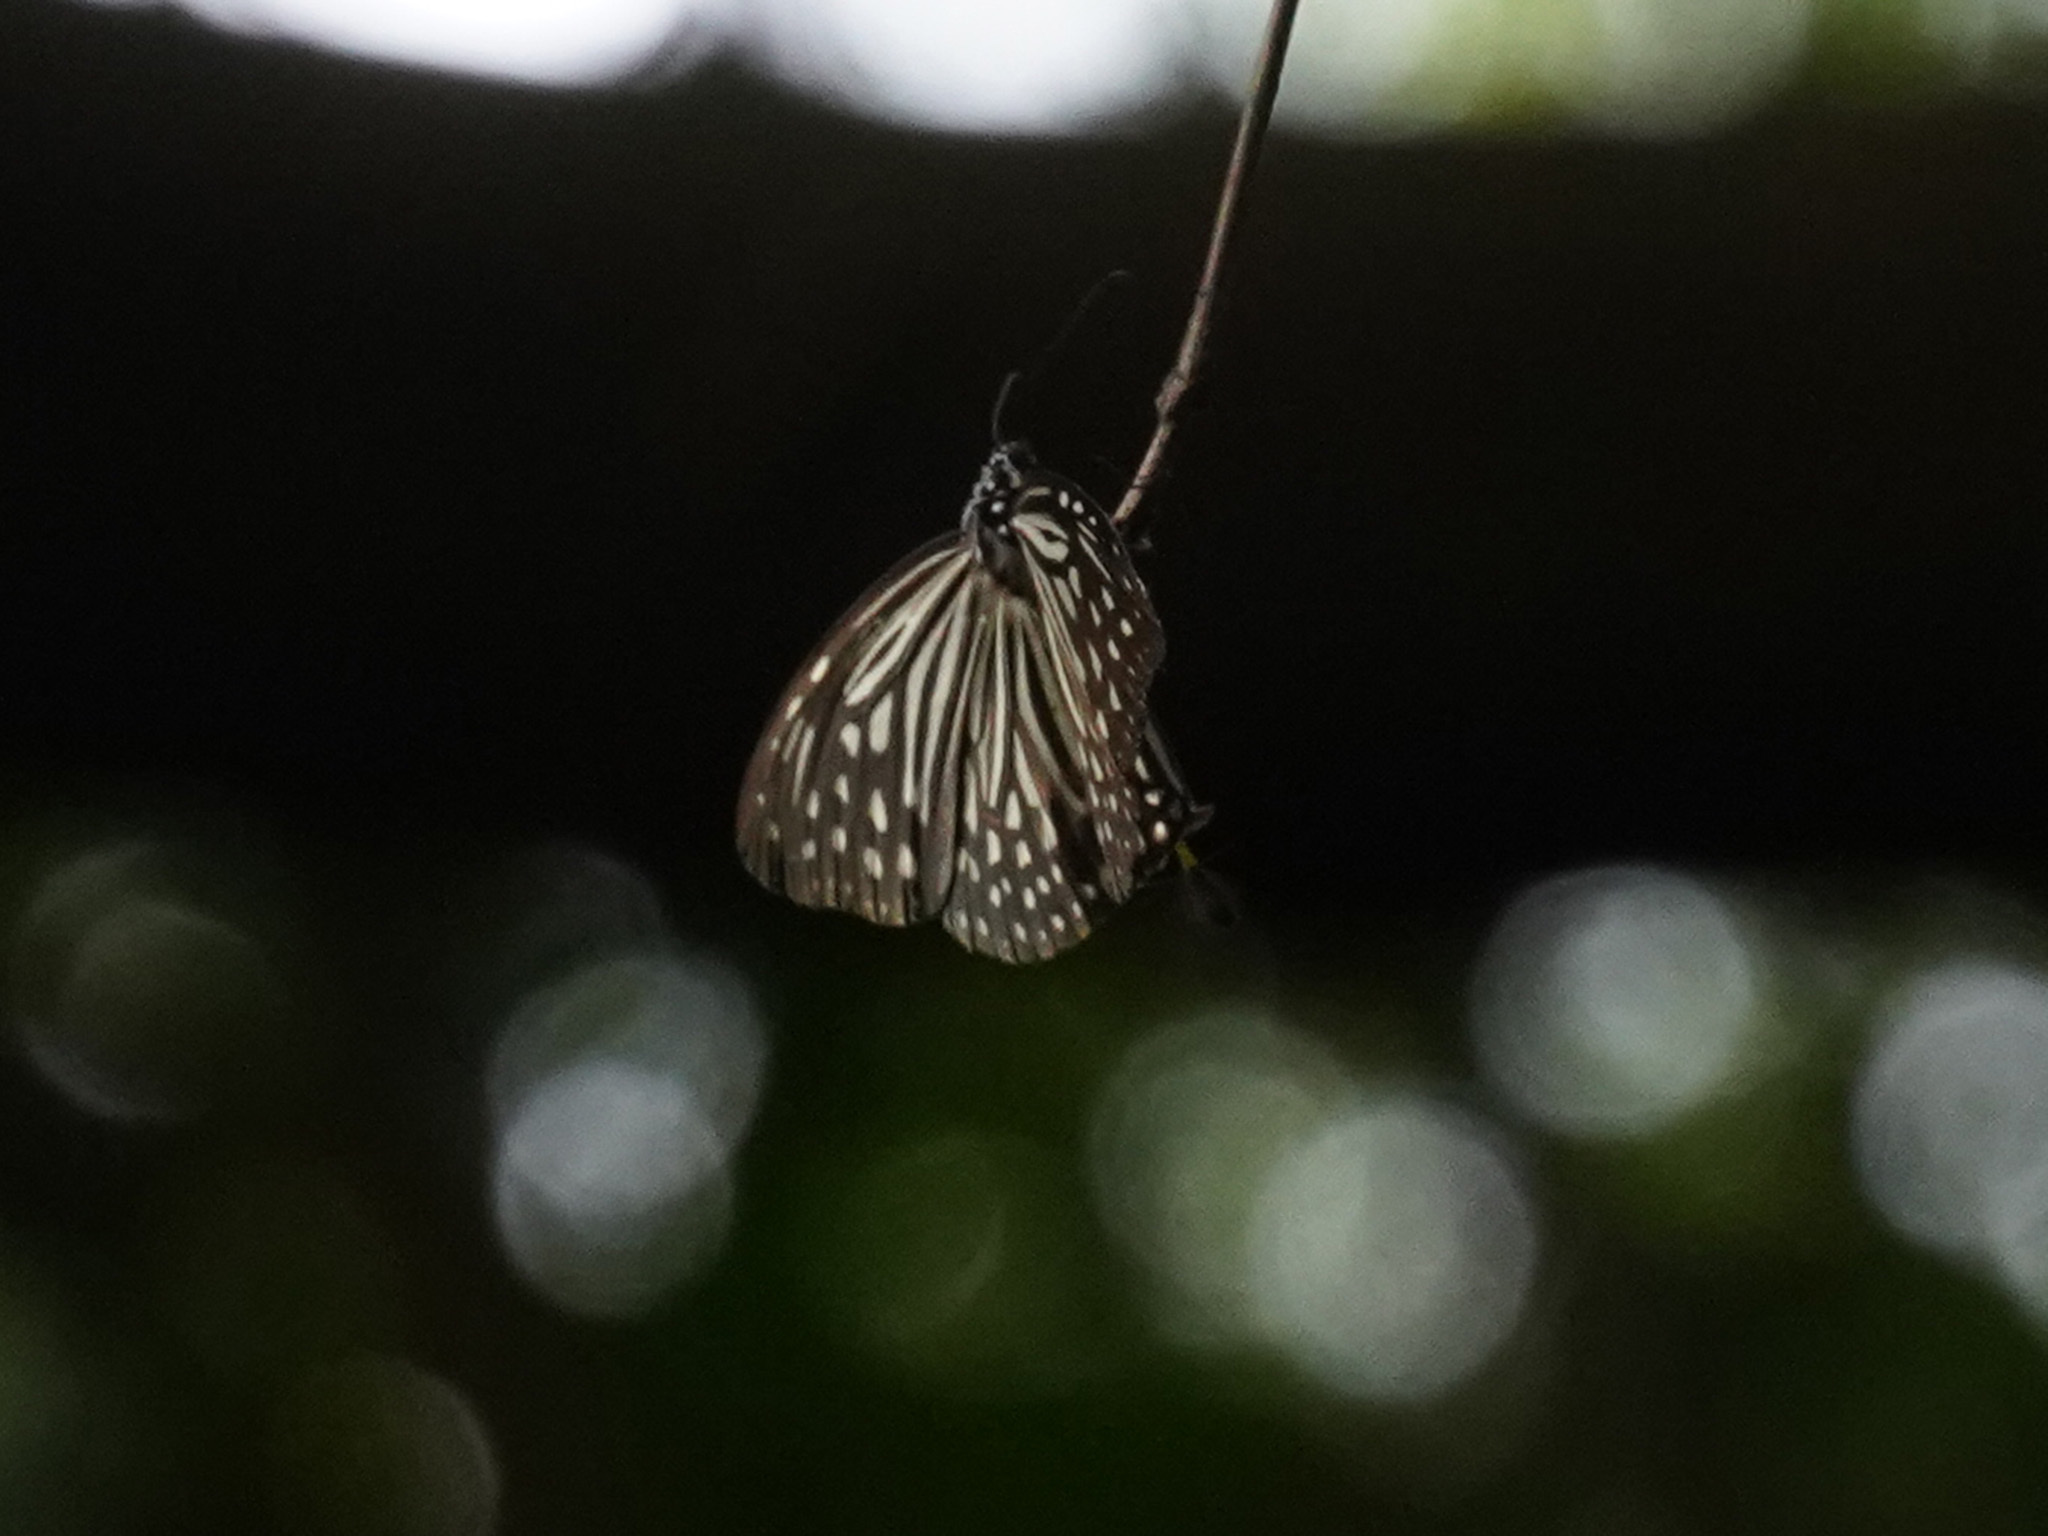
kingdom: Animalia
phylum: Arthropoda
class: Insecta
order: Lepidoptera
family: Nymphalidae
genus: Parantica
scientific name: Parantica agleoides
